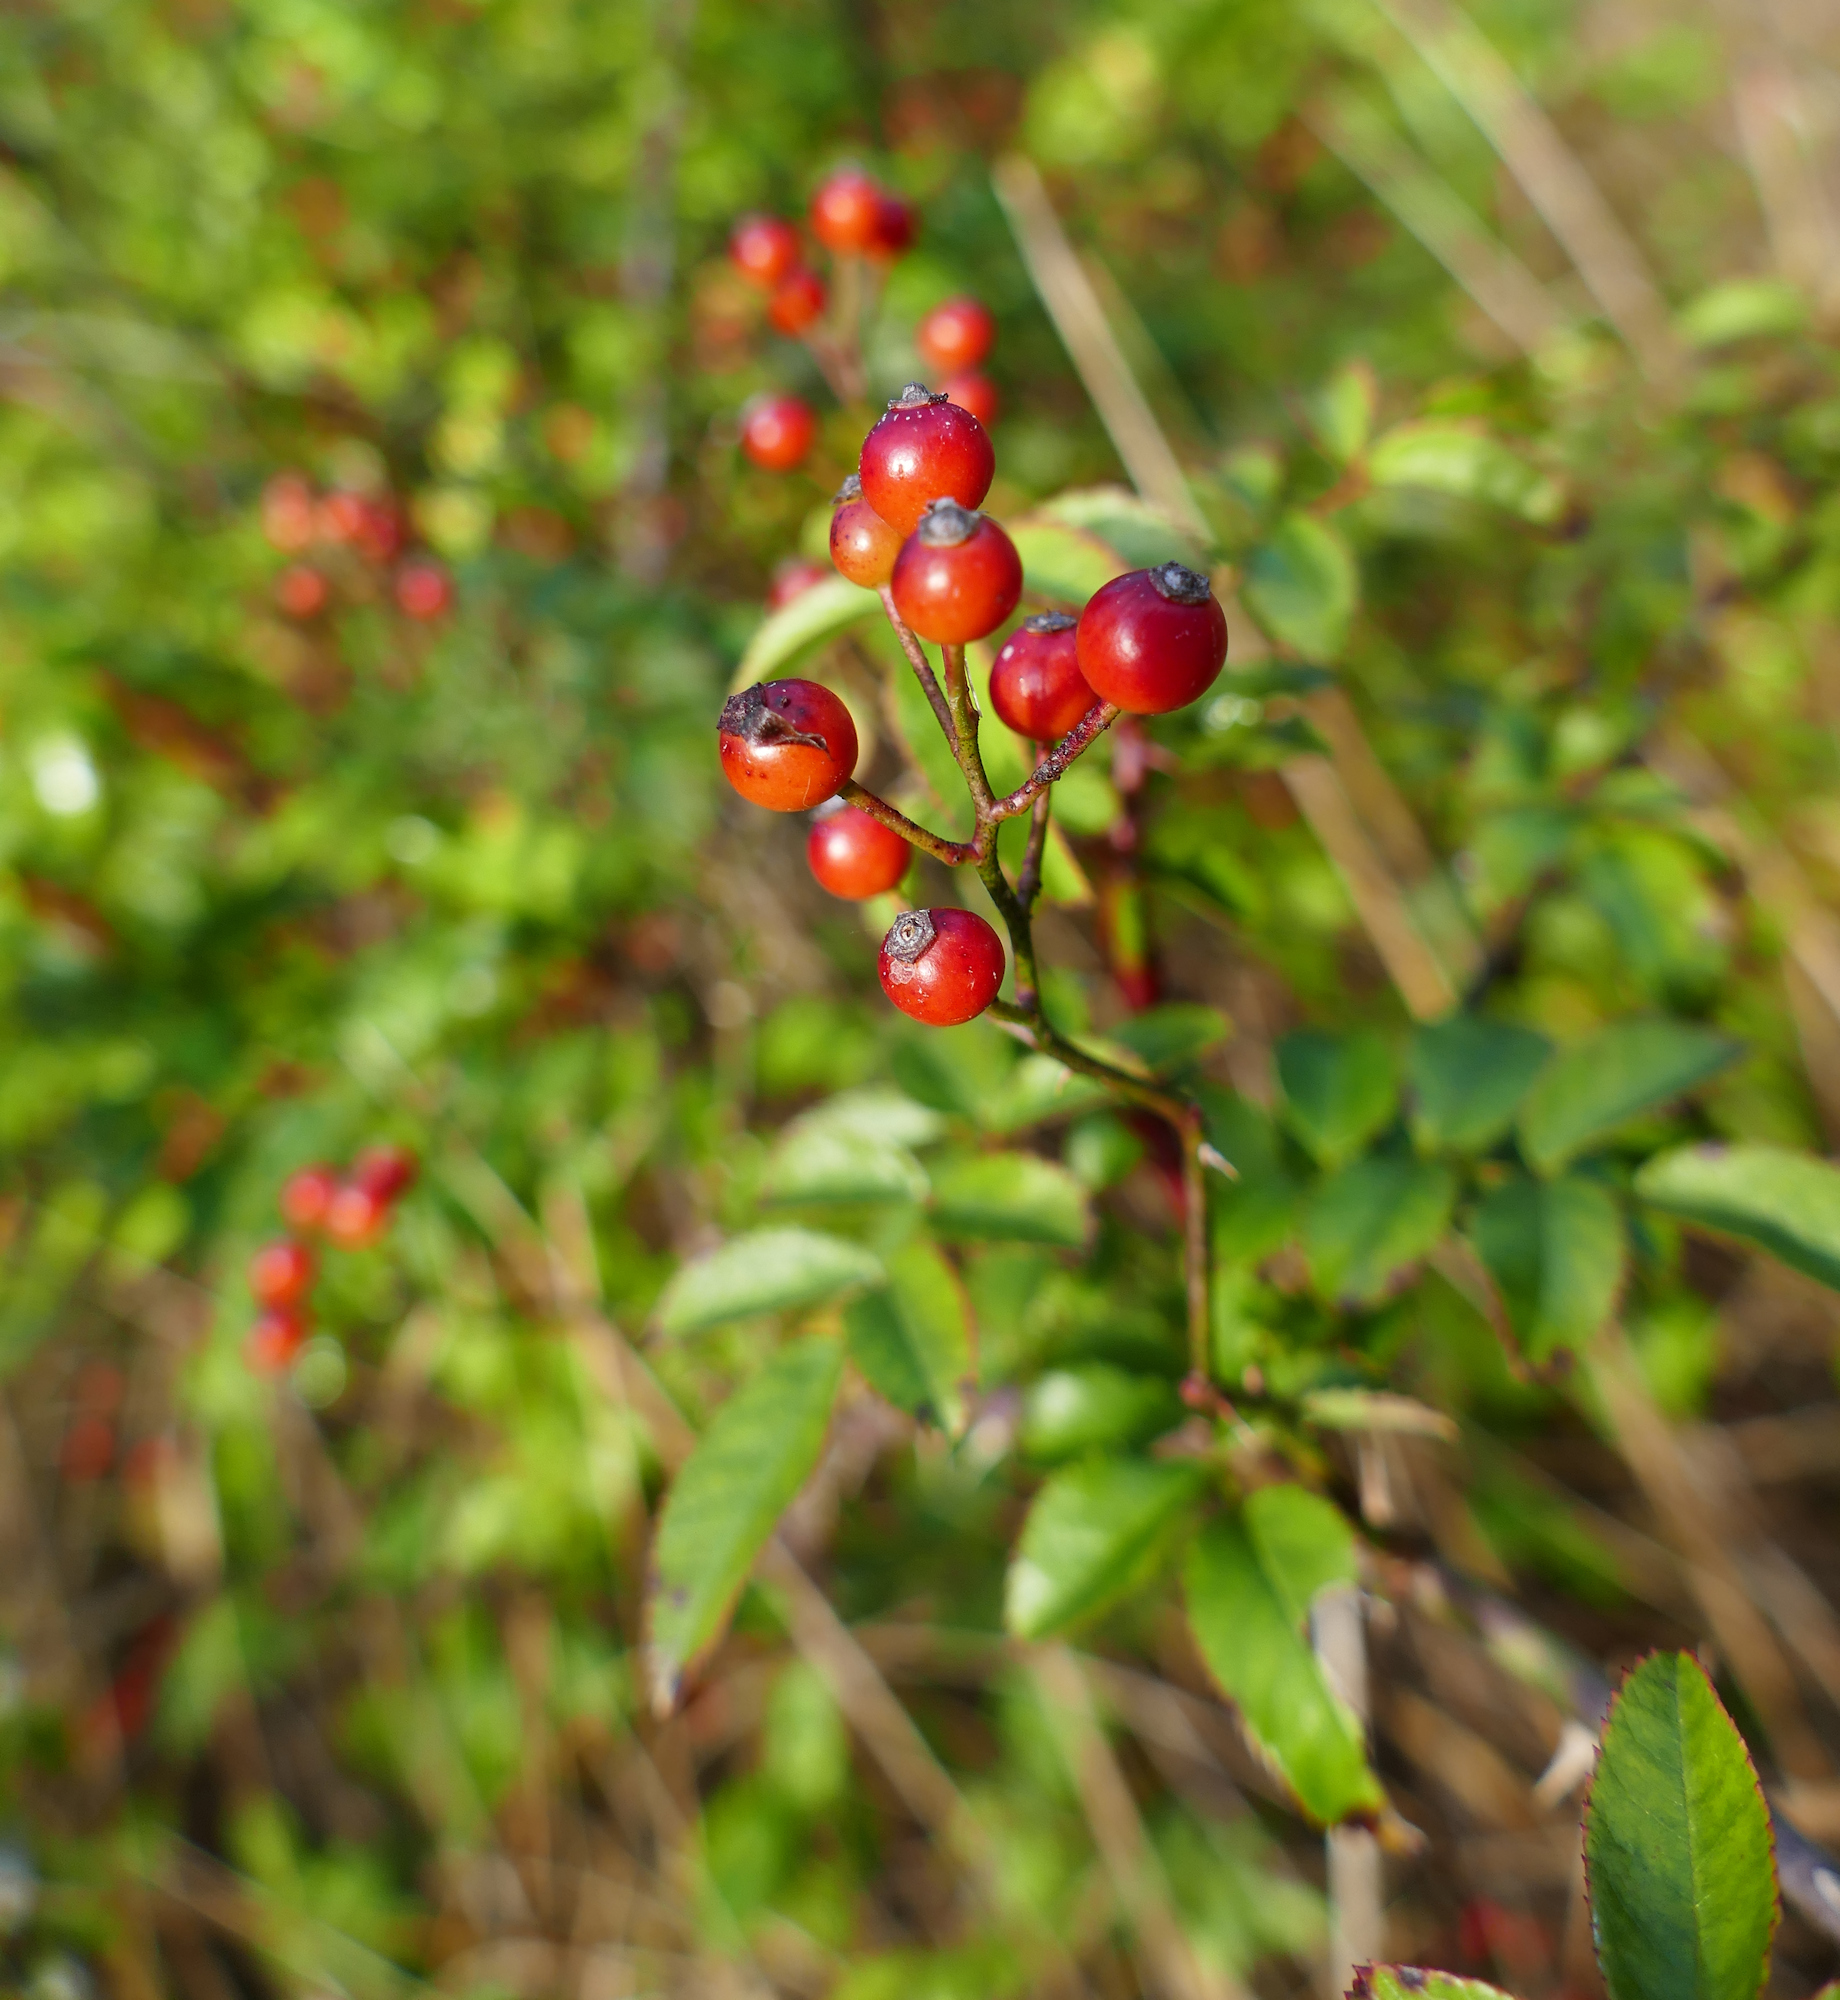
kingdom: Plantae
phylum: Tracheophyta
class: Magnoliopsida
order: Rosales
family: Rosaceae
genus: Rosa
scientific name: Rosa multiflora
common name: Multiflora rose
